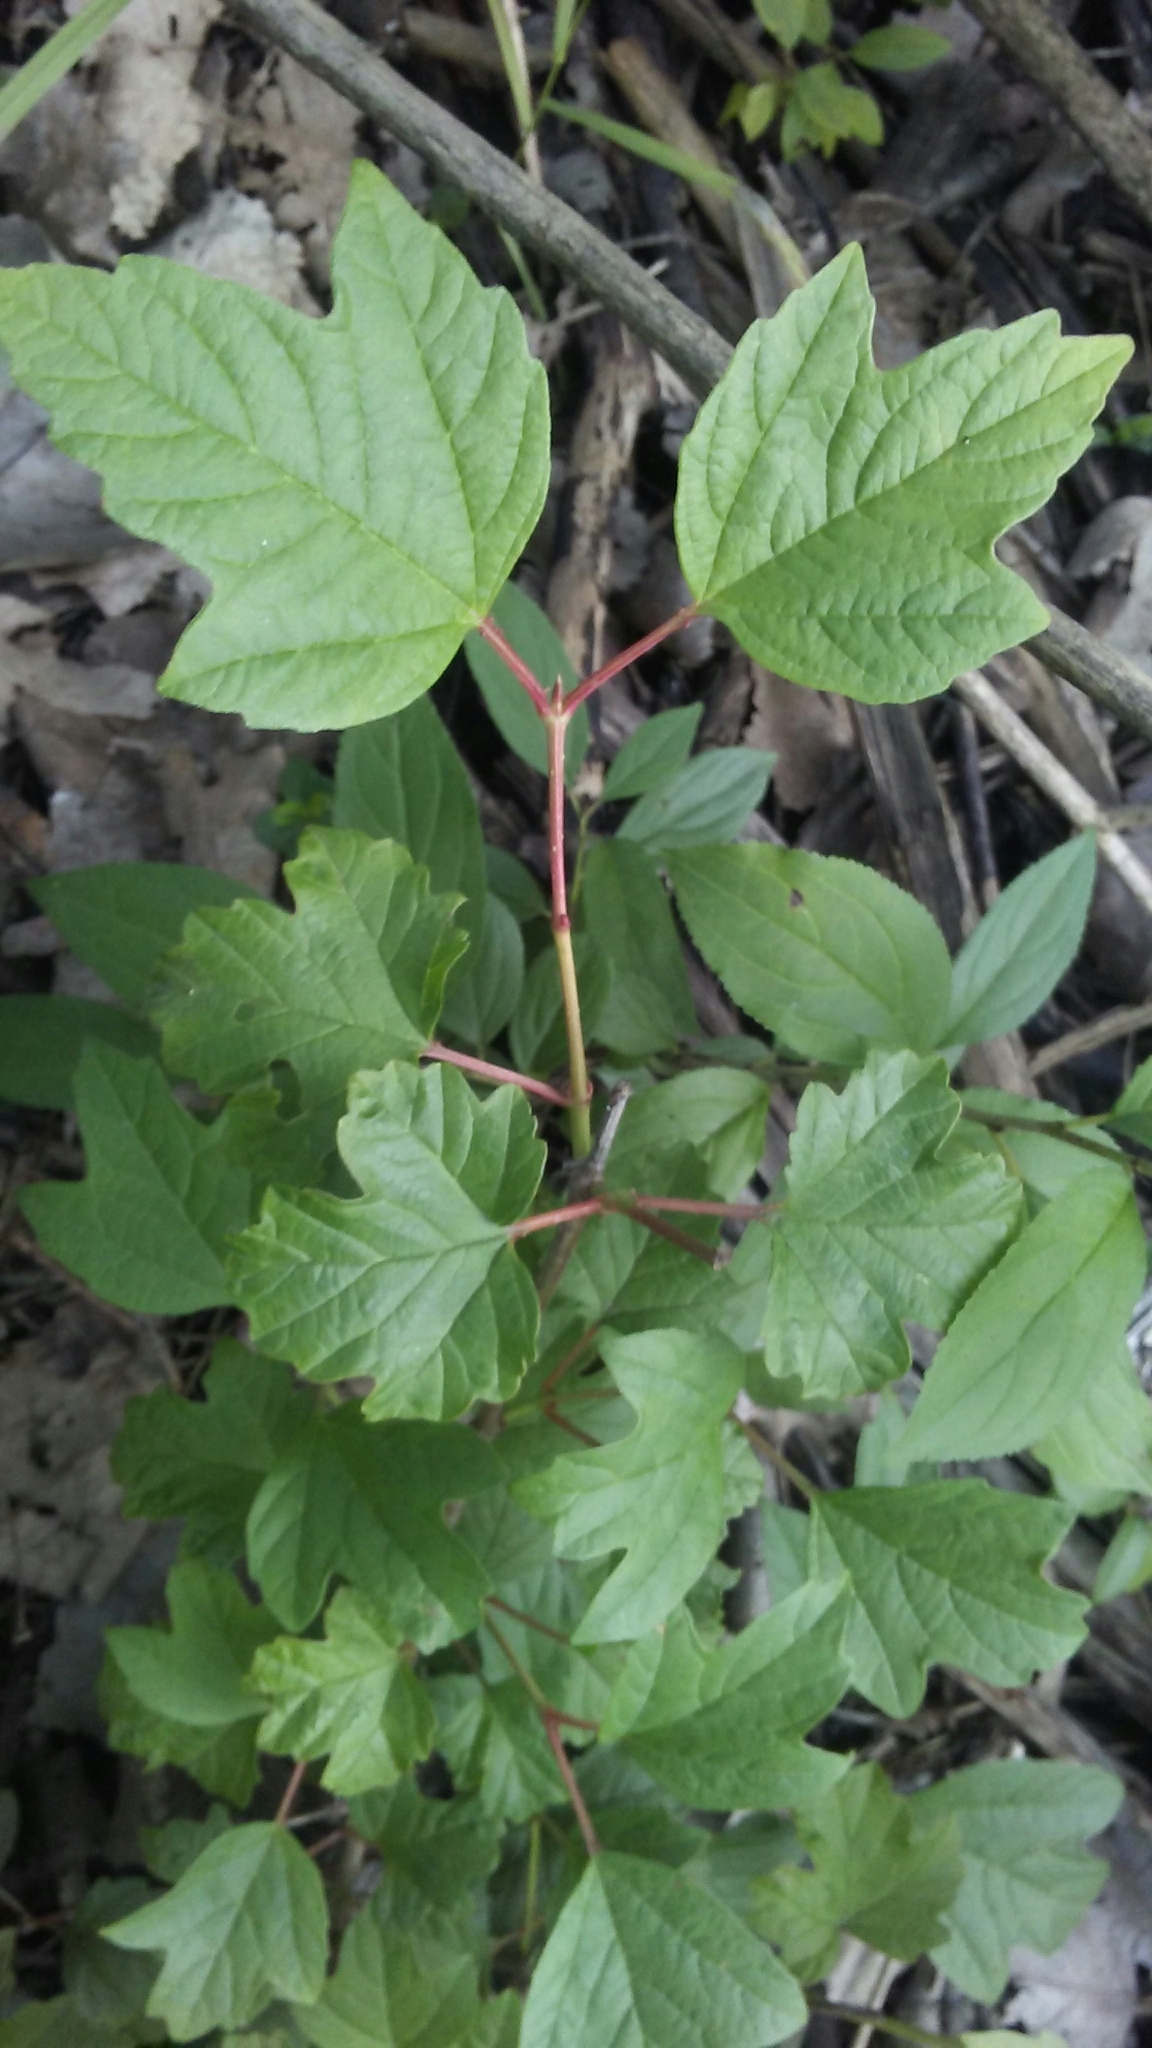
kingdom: Plantae
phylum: Tracheophyta
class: Magnoliopsida
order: Dipsacales
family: Viburnaceae
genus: Viburnum
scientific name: Viburnum opulus
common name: Guelder-rose
